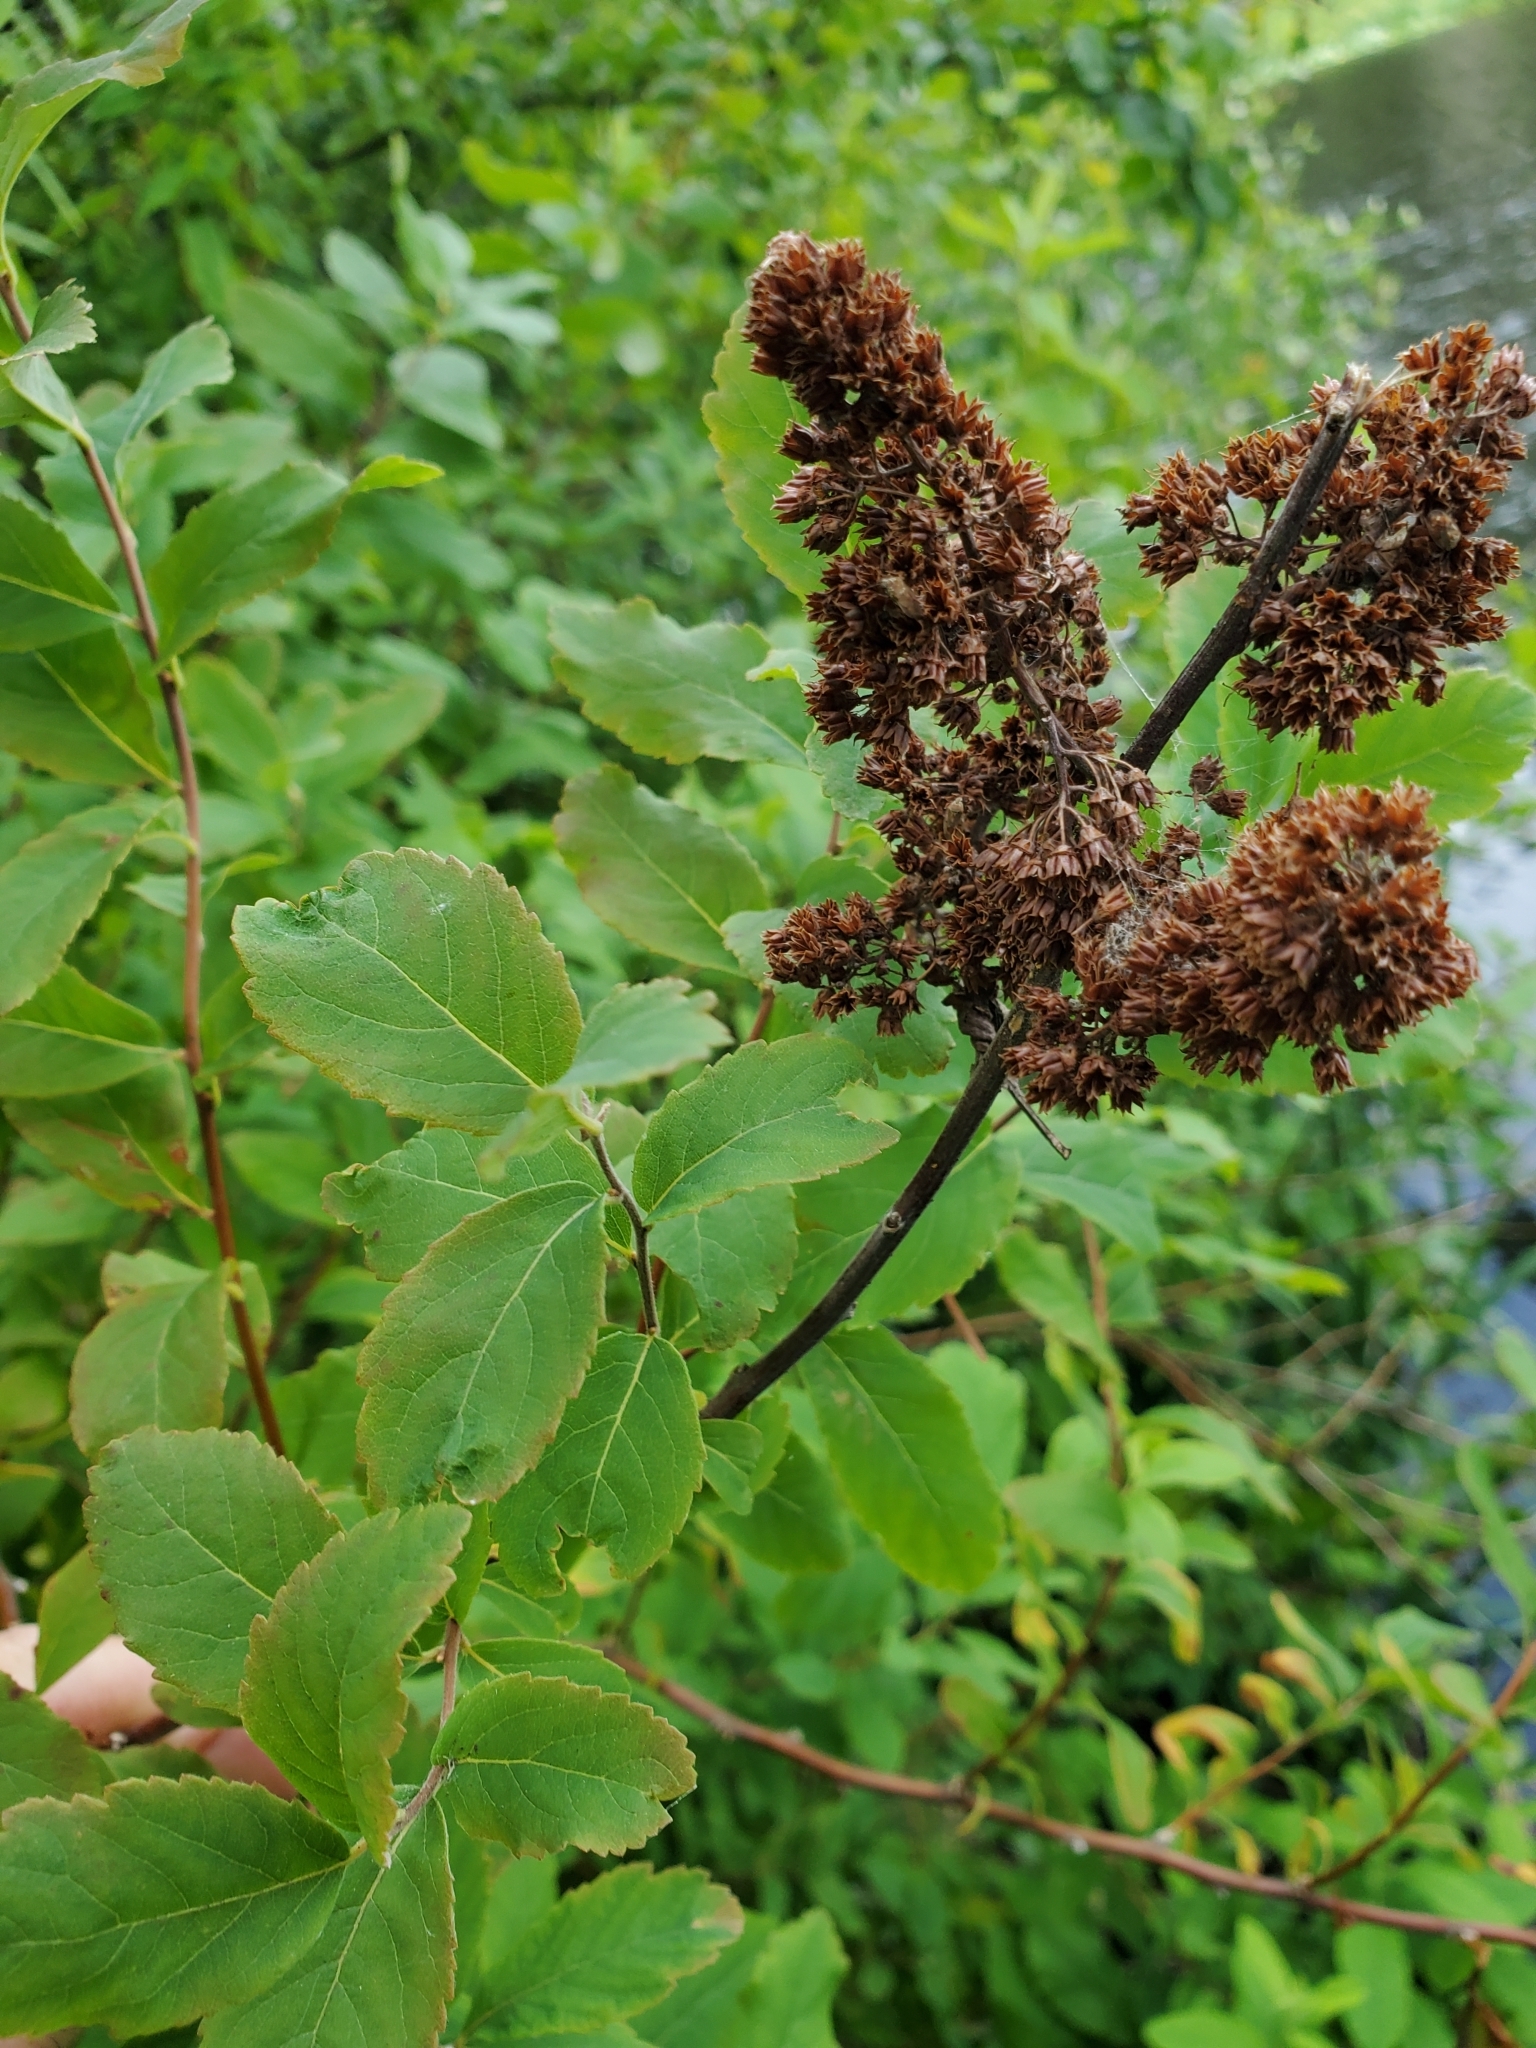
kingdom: Plantae
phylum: Tracheophyta
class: Magnoliopsida
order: Rosales
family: Rosaceae
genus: Spiraea
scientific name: Spiraea douglasii
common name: Steeplebush
